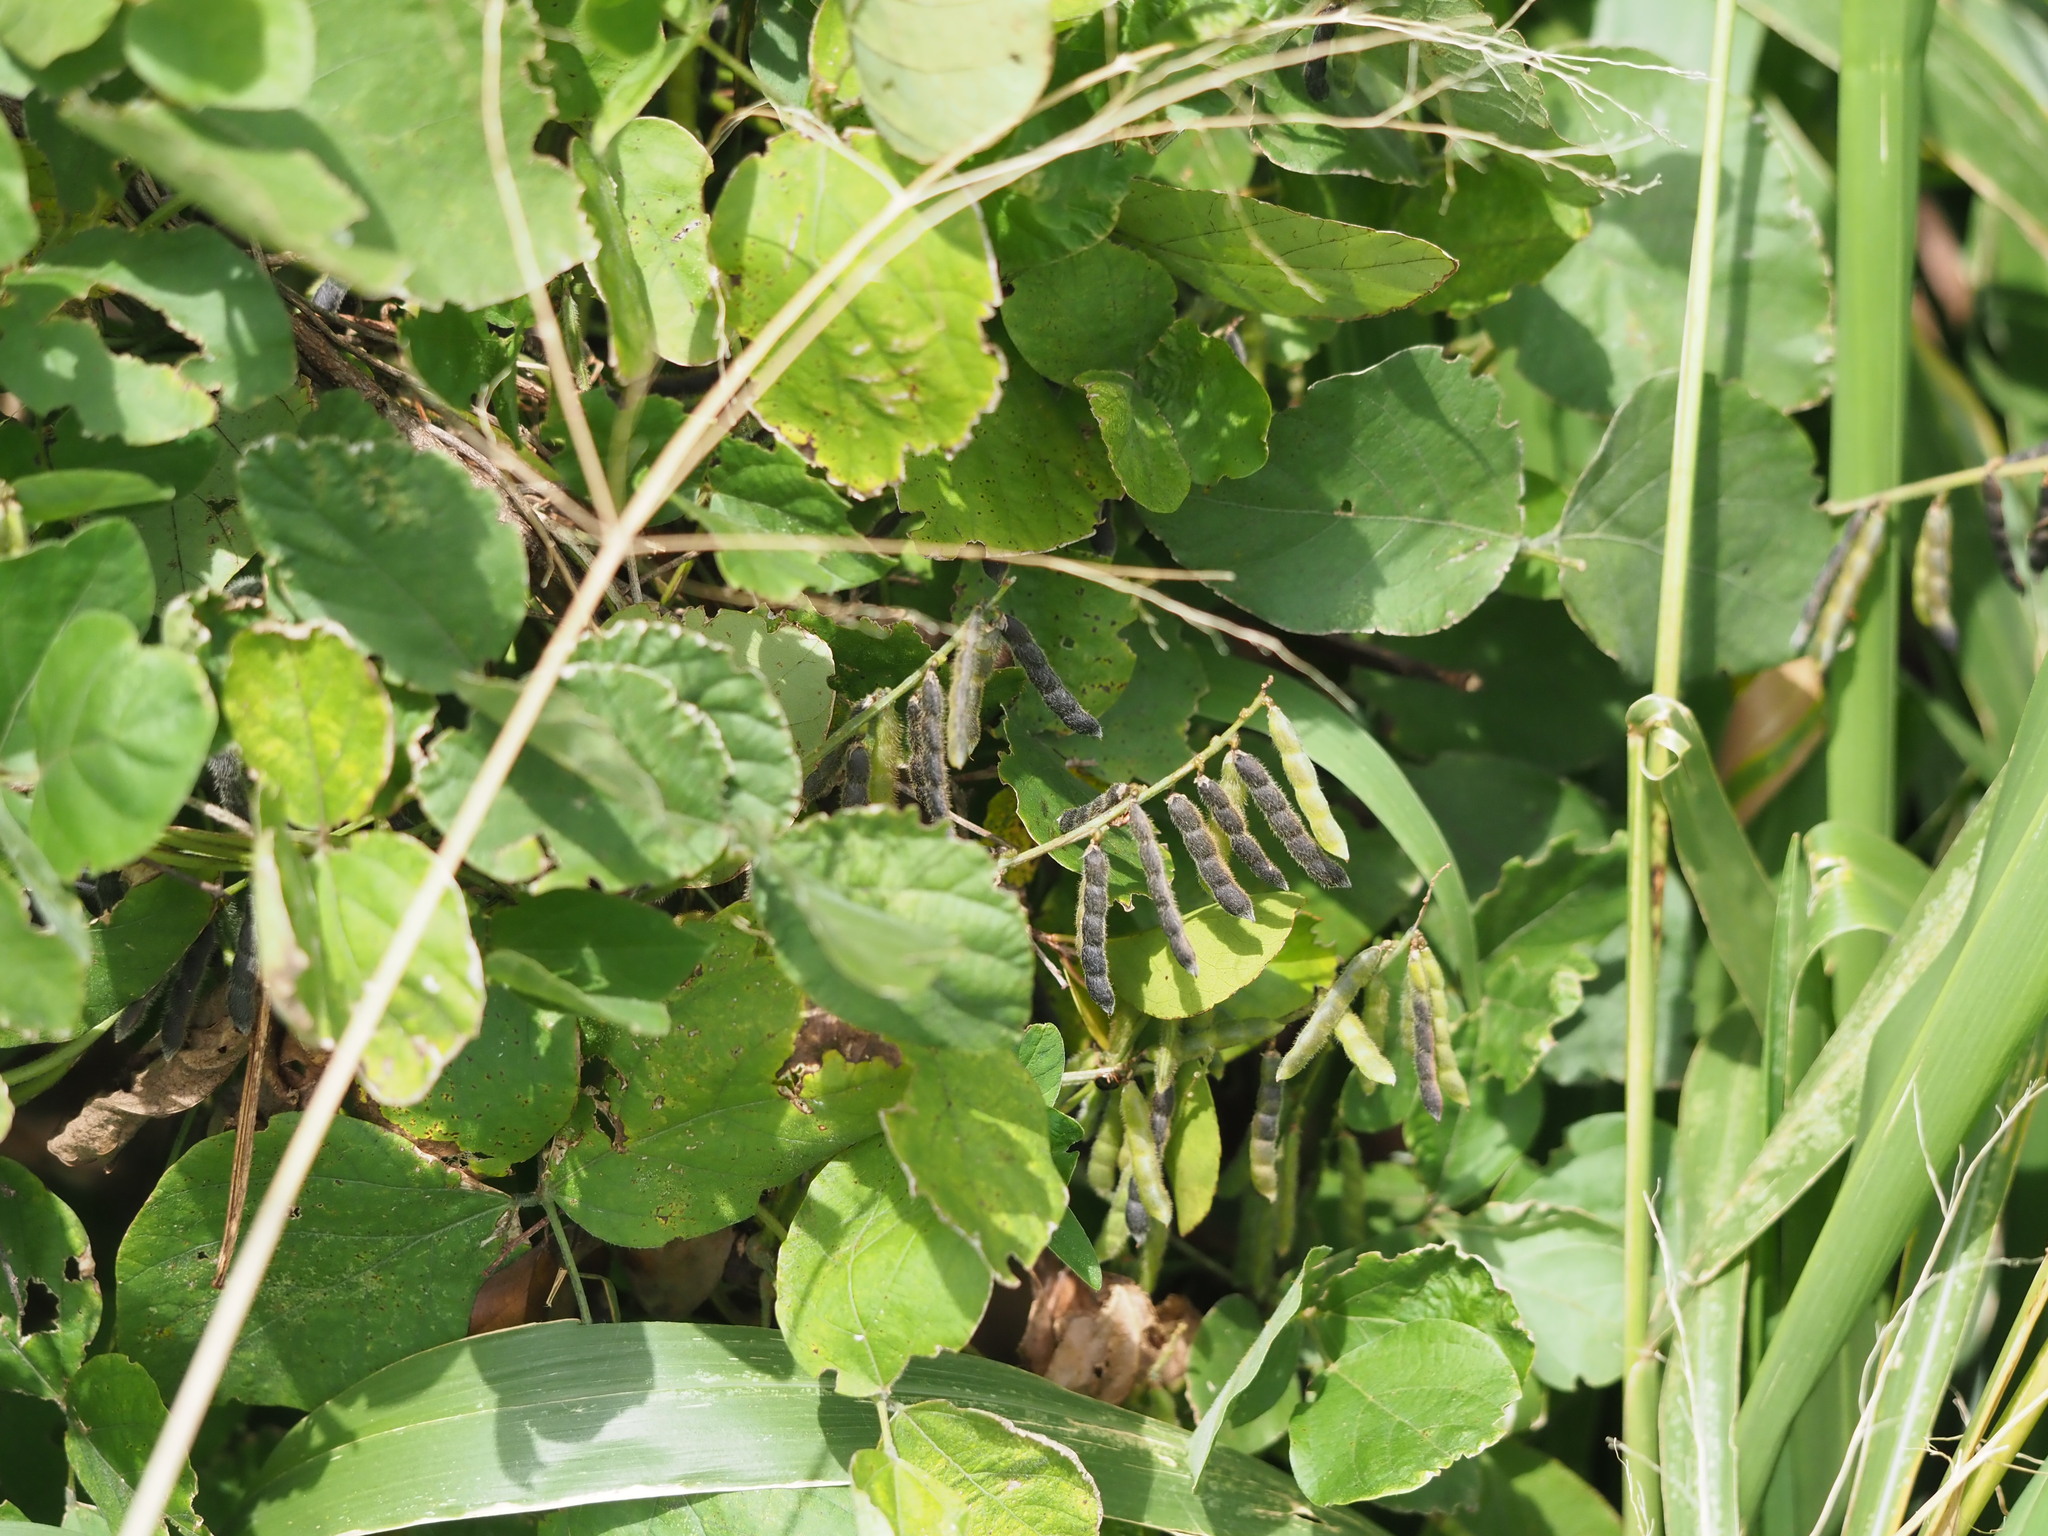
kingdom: Plantae
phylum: Tracheophyta
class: Magnoliopsida
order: Fabales
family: Fabaceae
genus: Neonotonia
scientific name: Neonotonia wightii
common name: Perennial soybean
